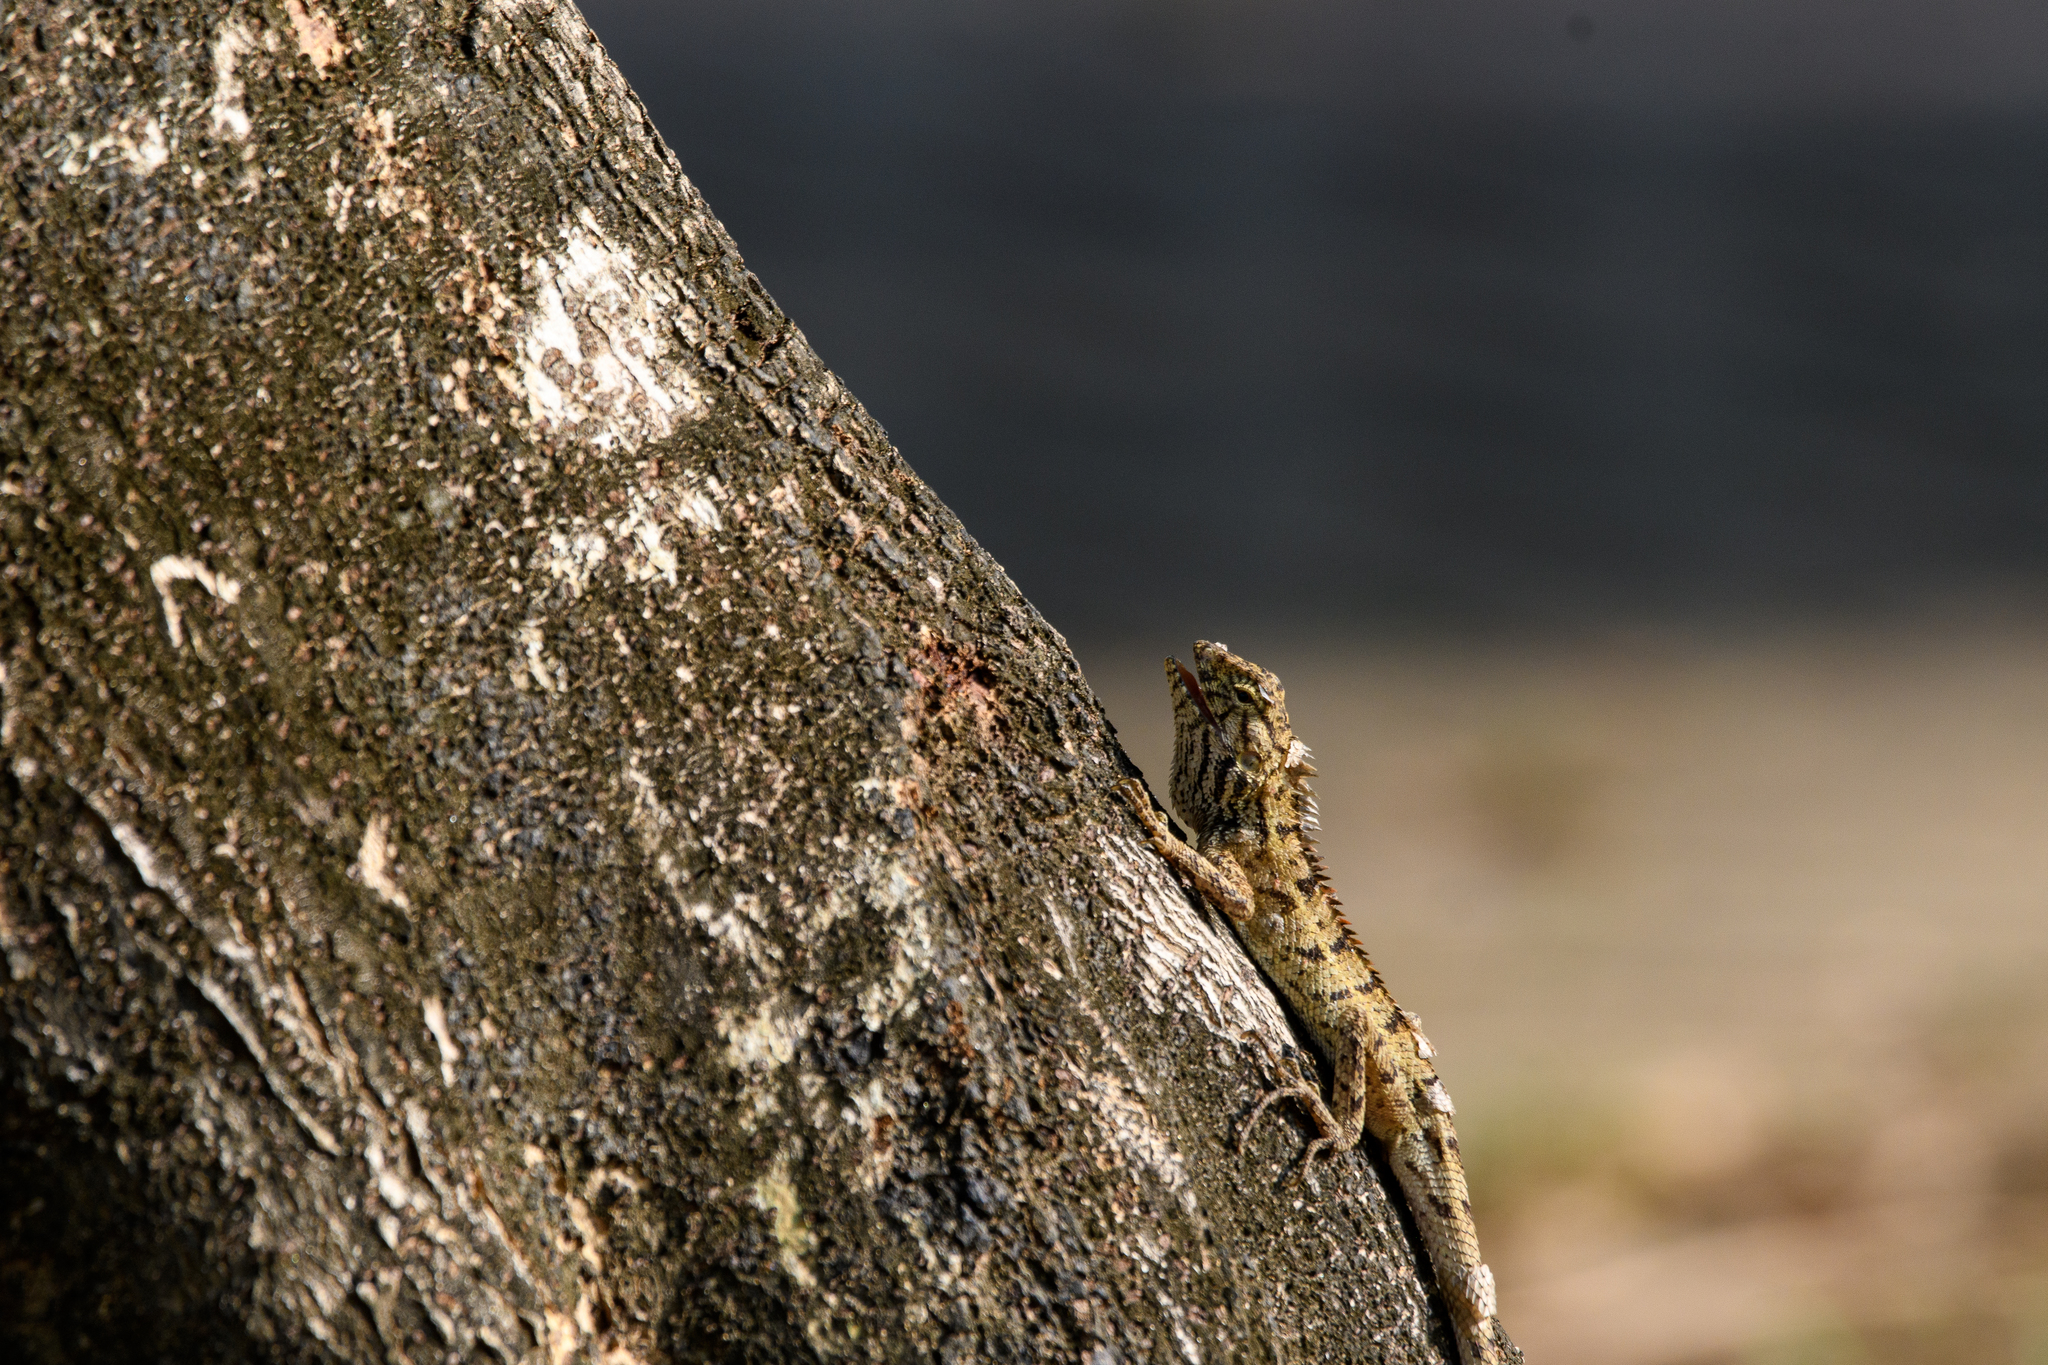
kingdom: Animalia
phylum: Chordata
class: Squamata
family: Agamidae
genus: Calotes
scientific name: Calotes versicolor
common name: Oriental garden lizard
